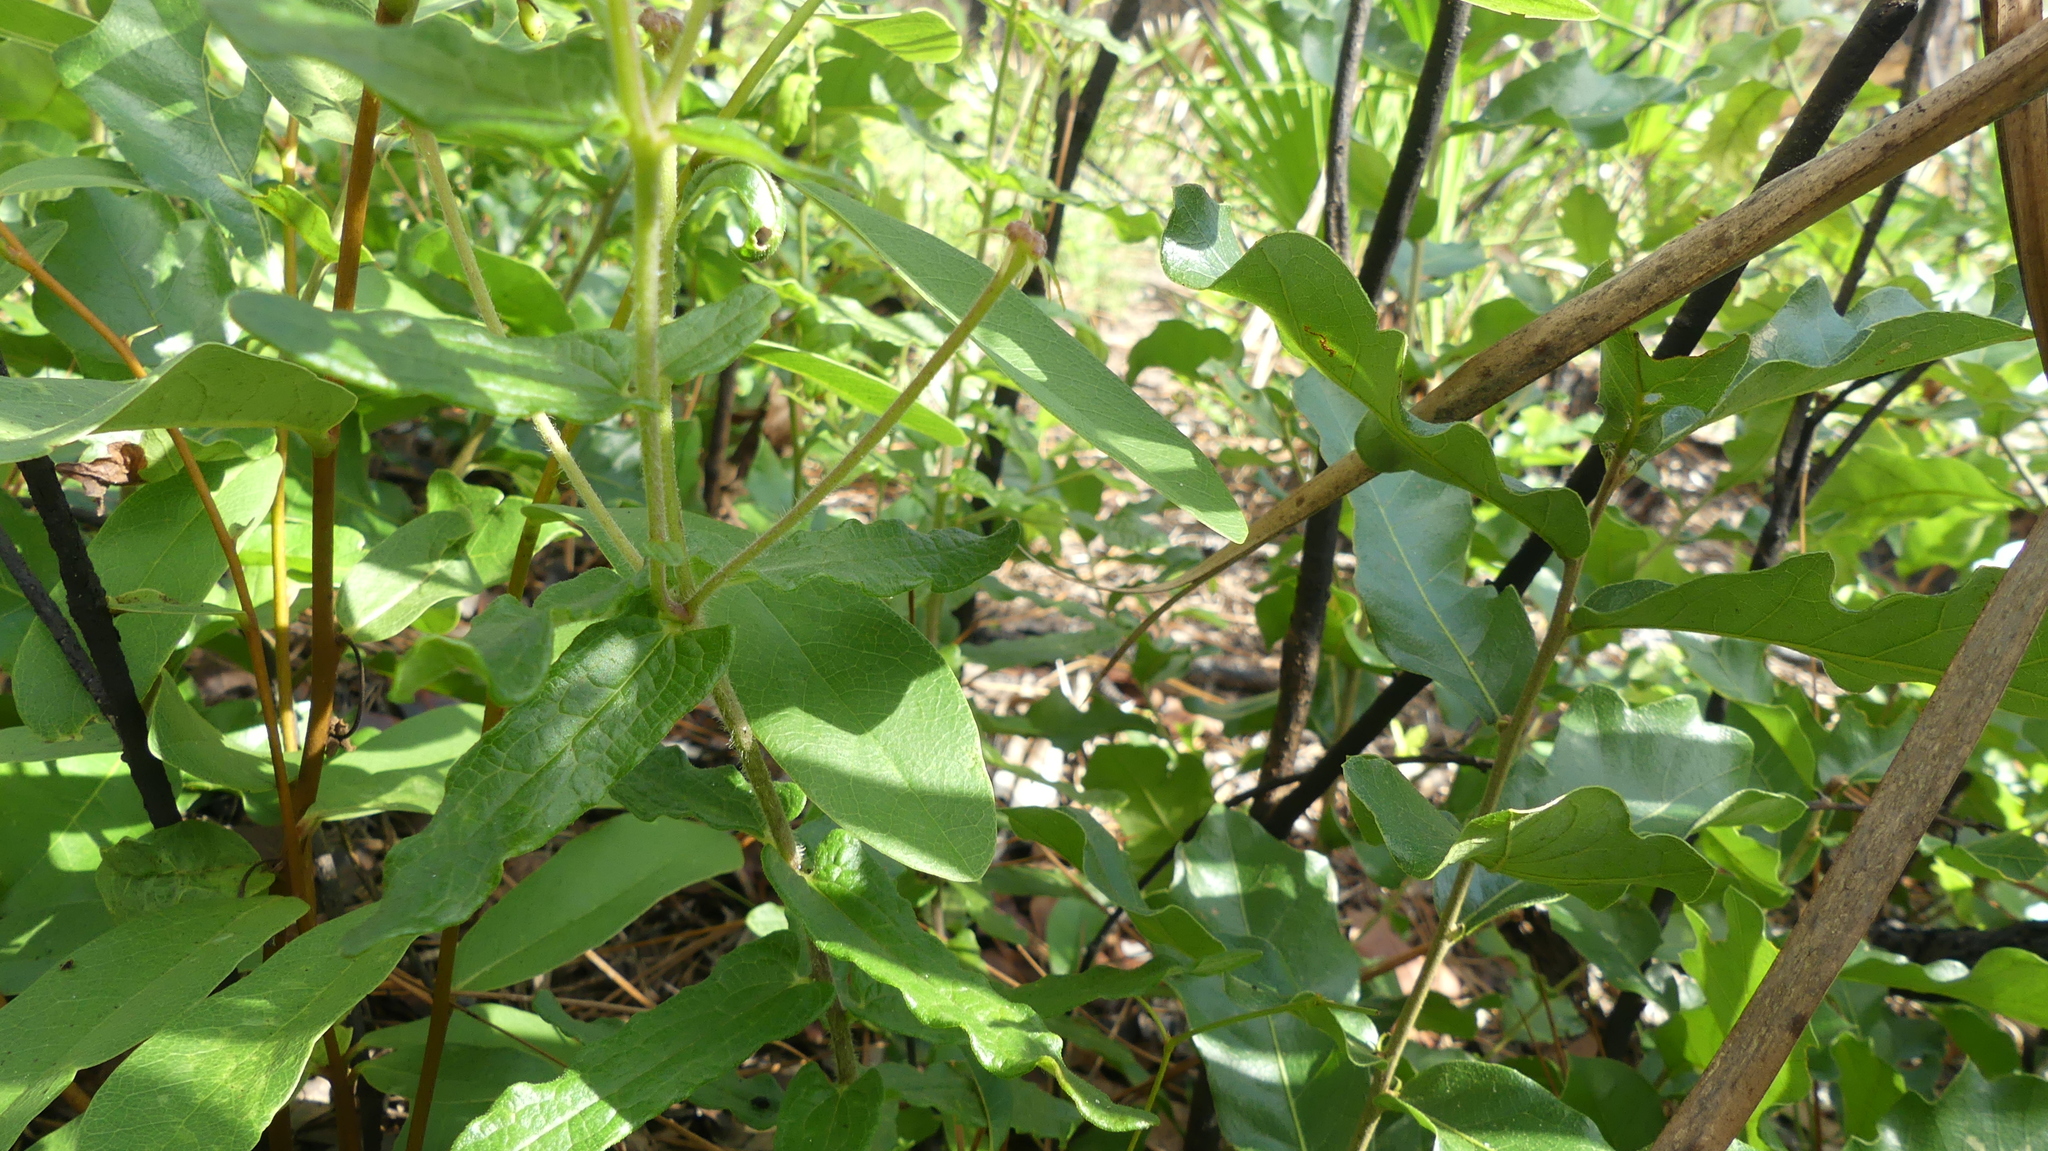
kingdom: Plantae
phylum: Tracheophyta
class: Magnoliopsida
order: Gentianales
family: Apocynaceae
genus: Asclepias
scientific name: Asclepias tuberosa
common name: Butterfly milkweed
